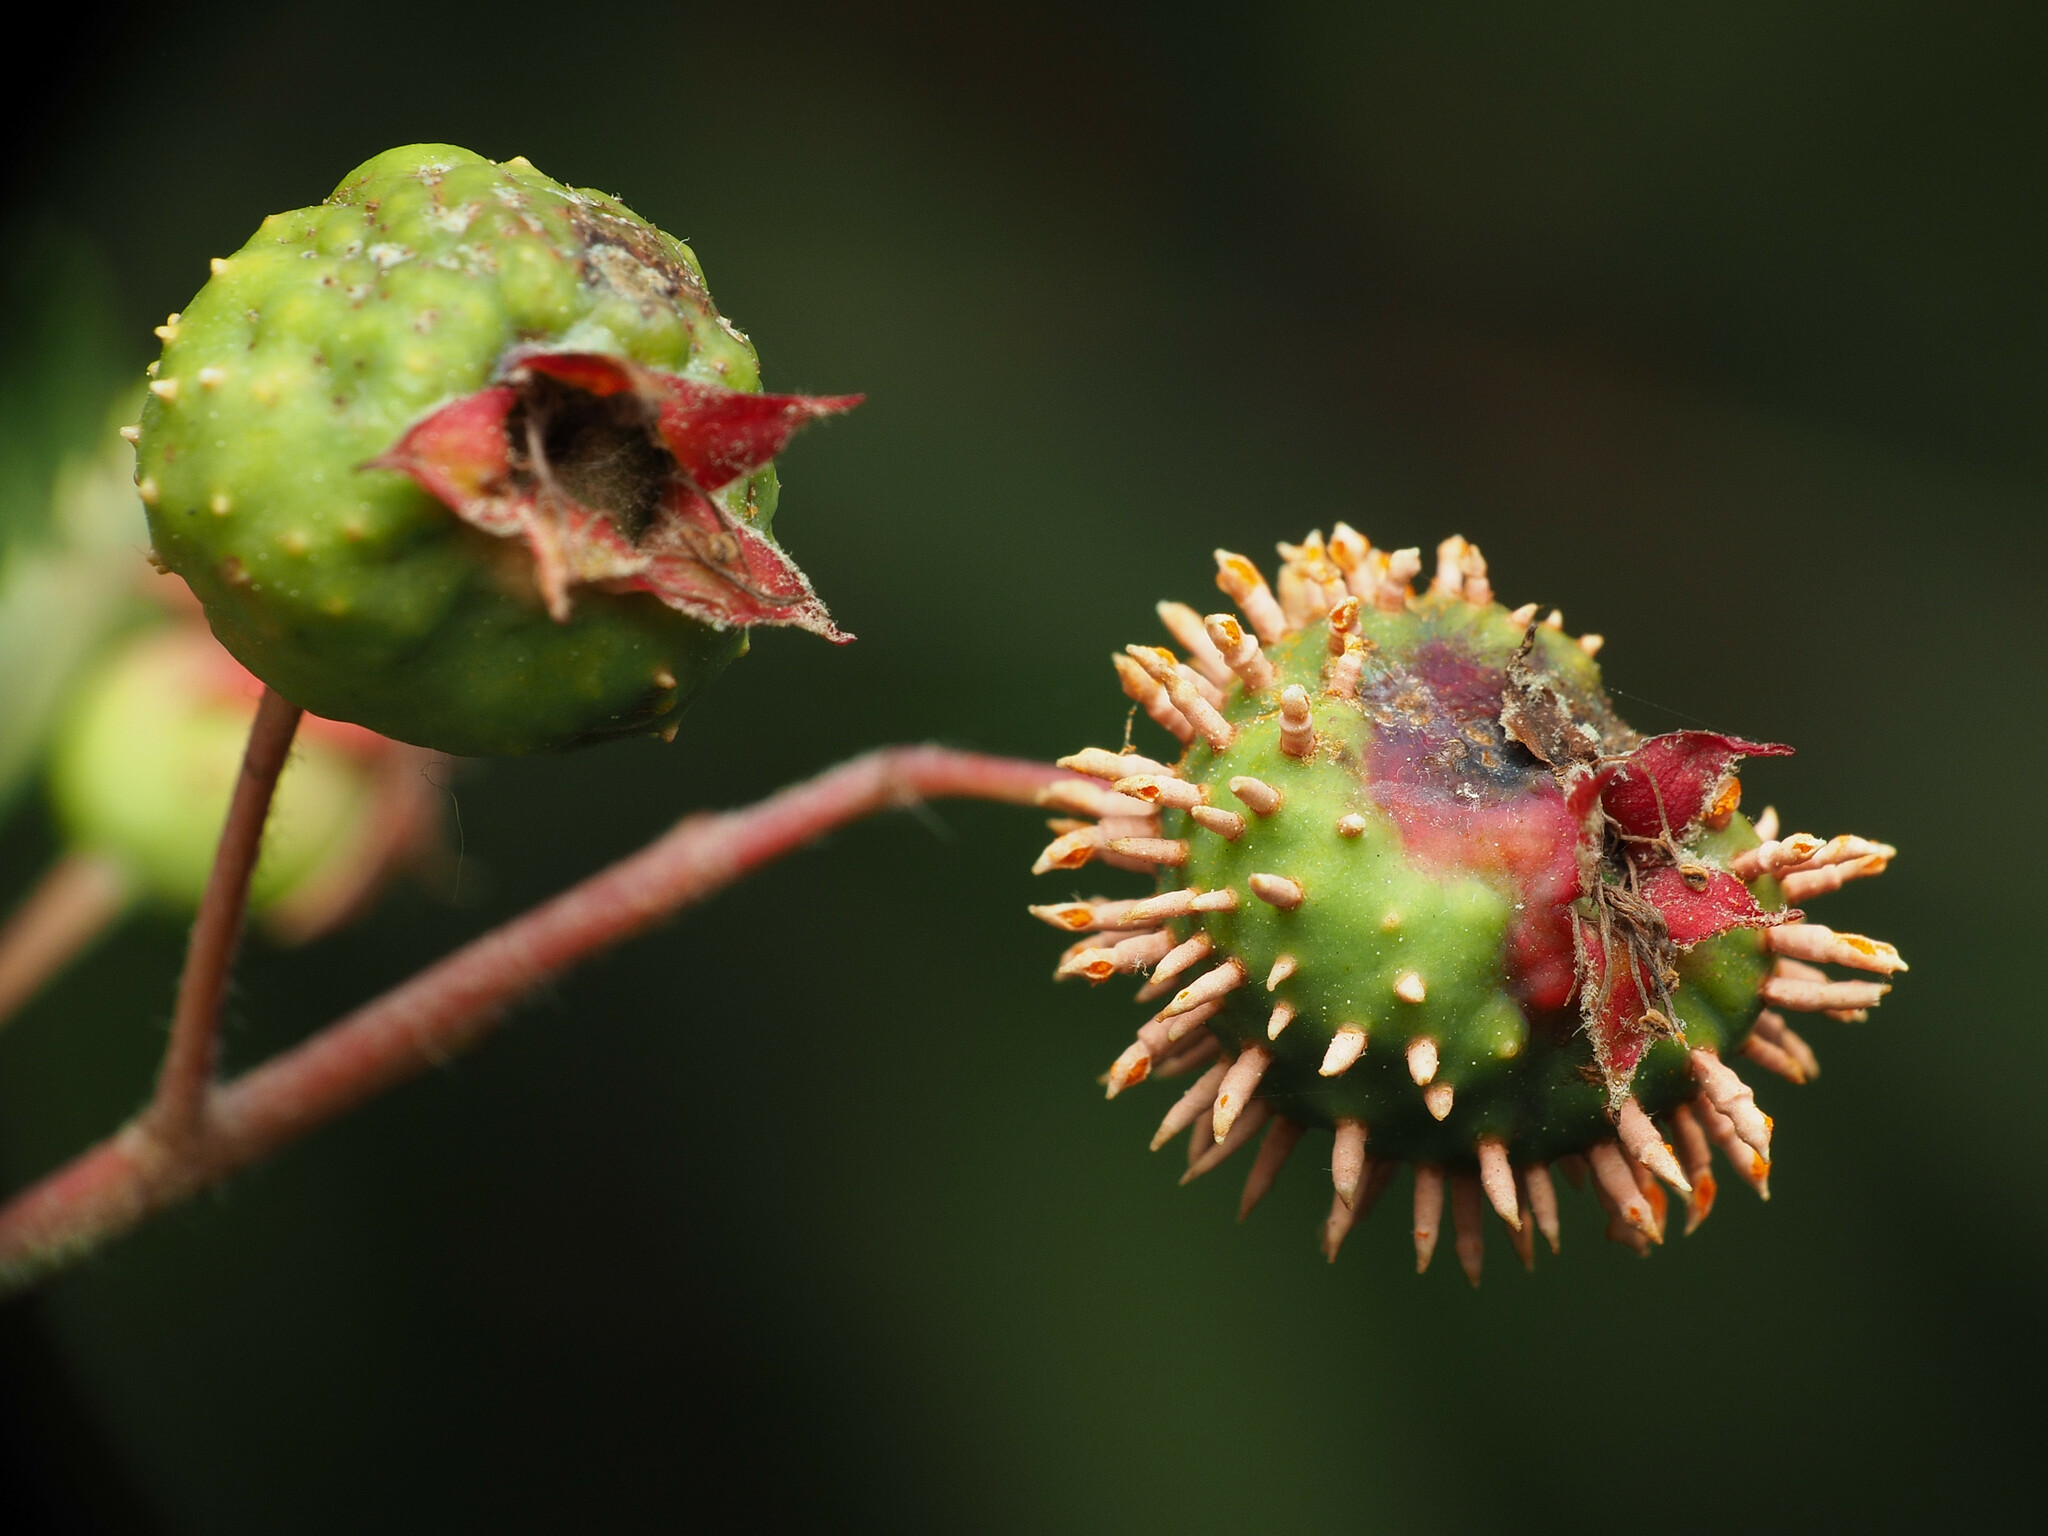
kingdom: Fungi
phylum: Basidiomycota
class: Pucciniomycetes
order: Pucciniales
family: Gymnosporangiaceae
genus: Gymnosporangium
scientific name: Gymnosporangium clavipes
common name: Quince rust
